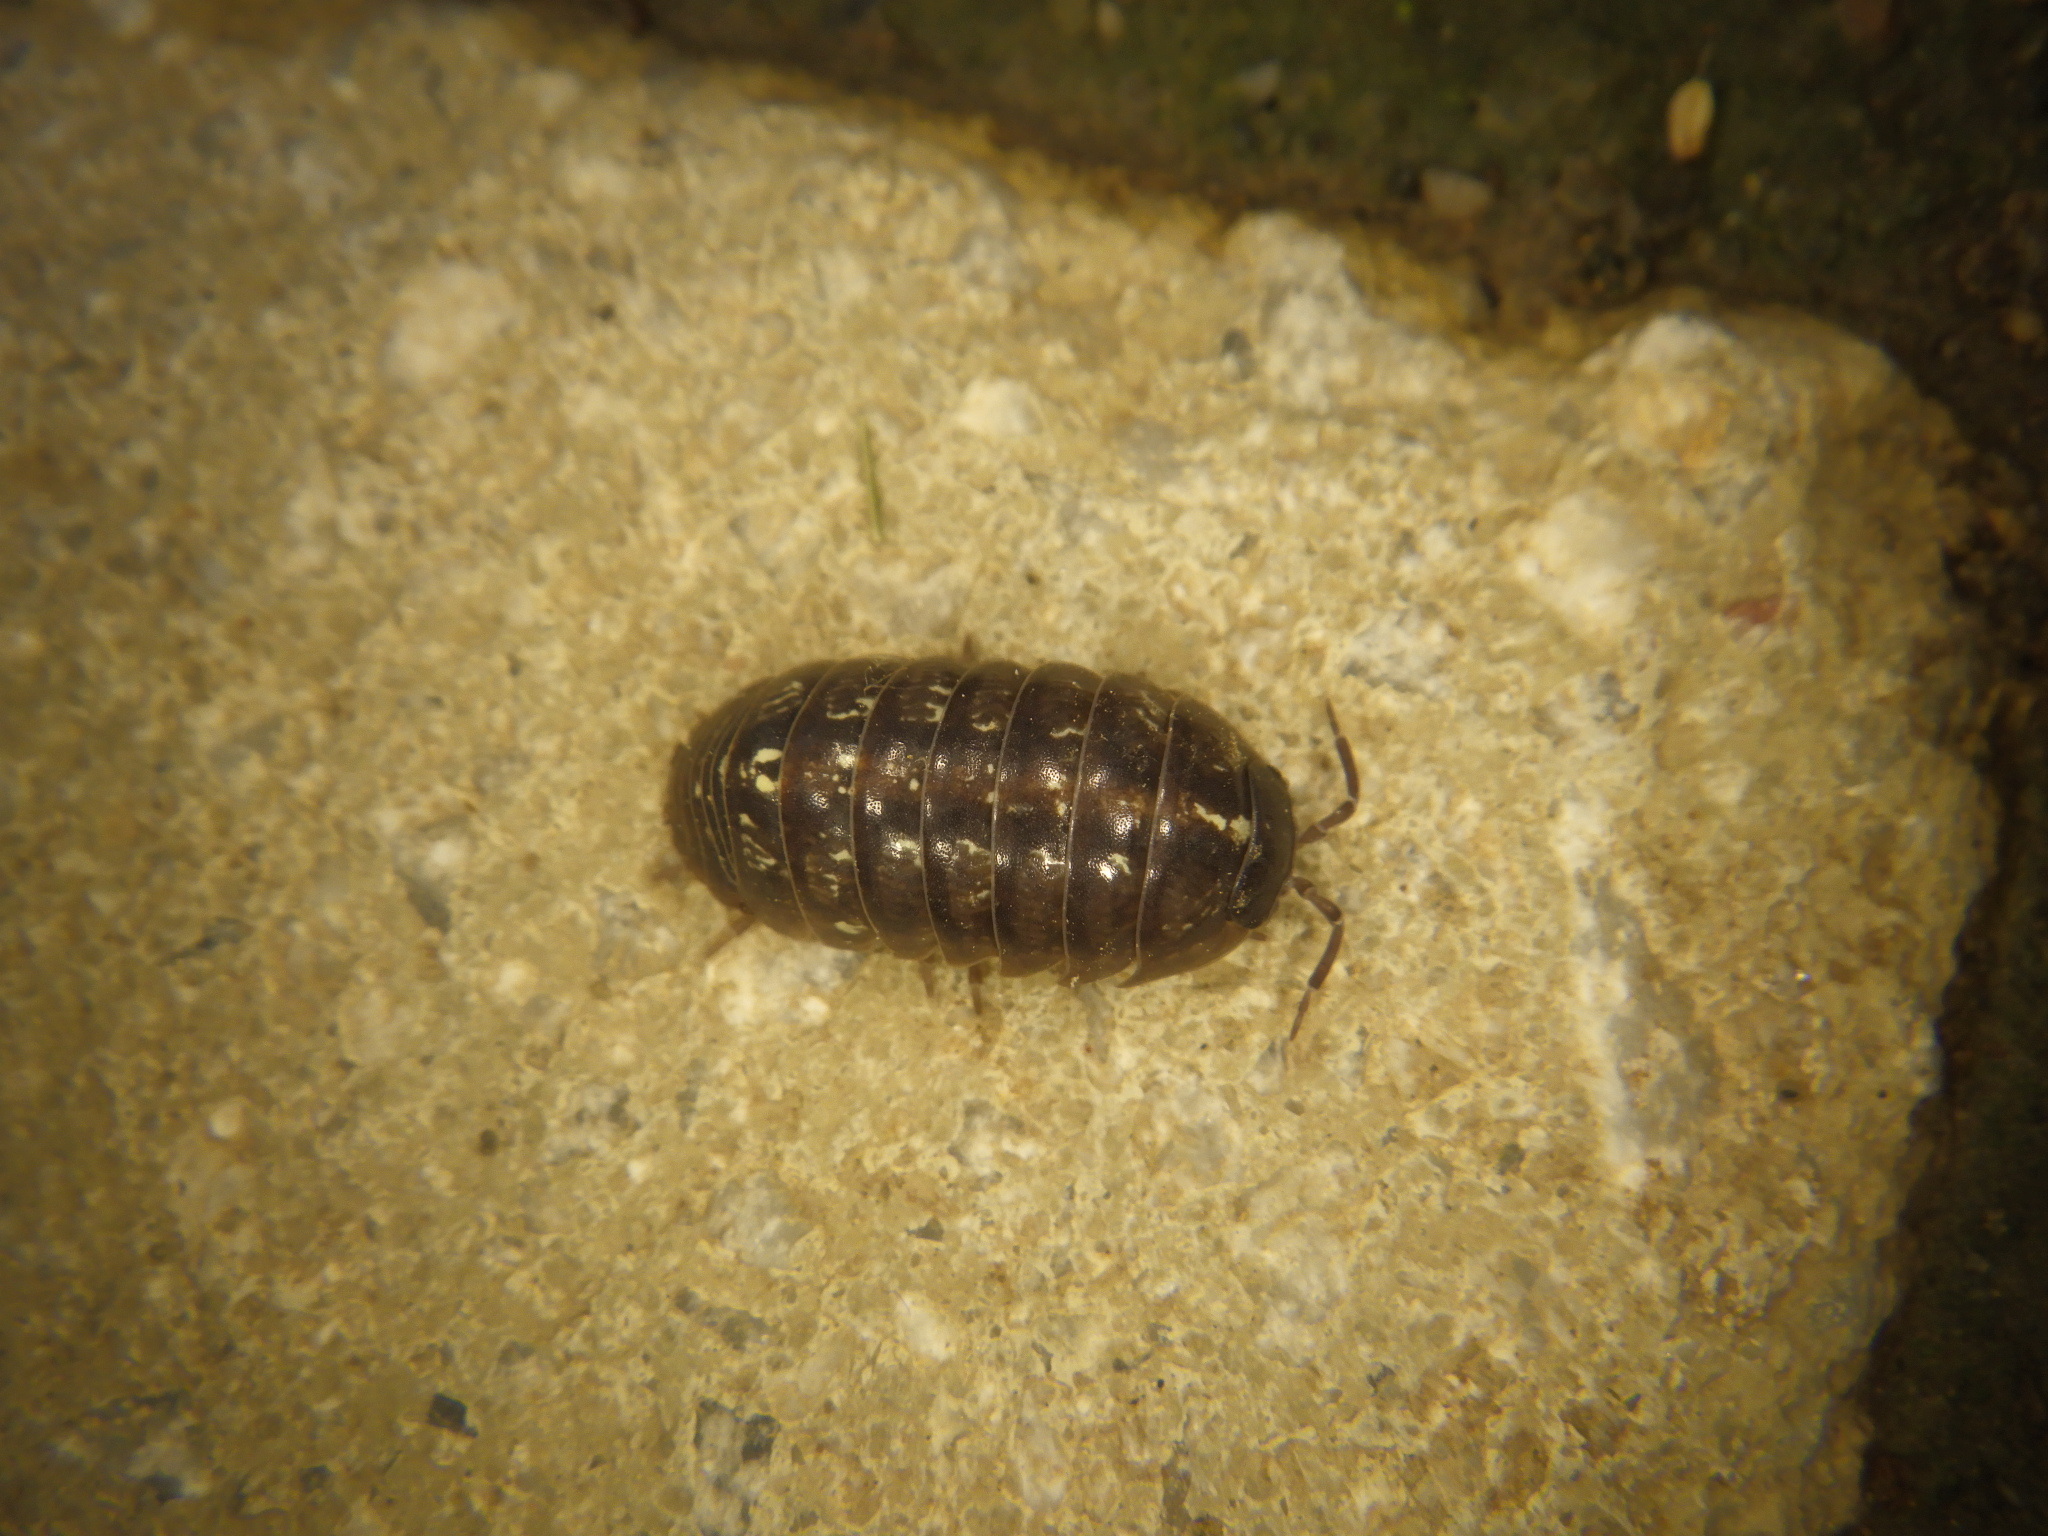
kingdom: Animalia
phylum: Arthropoda
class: Malacostraca
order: Isopoda
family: Armadillidiidae
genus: Armadillidium
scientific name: Armadillidium vulgare
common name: Common pill woodlouse
